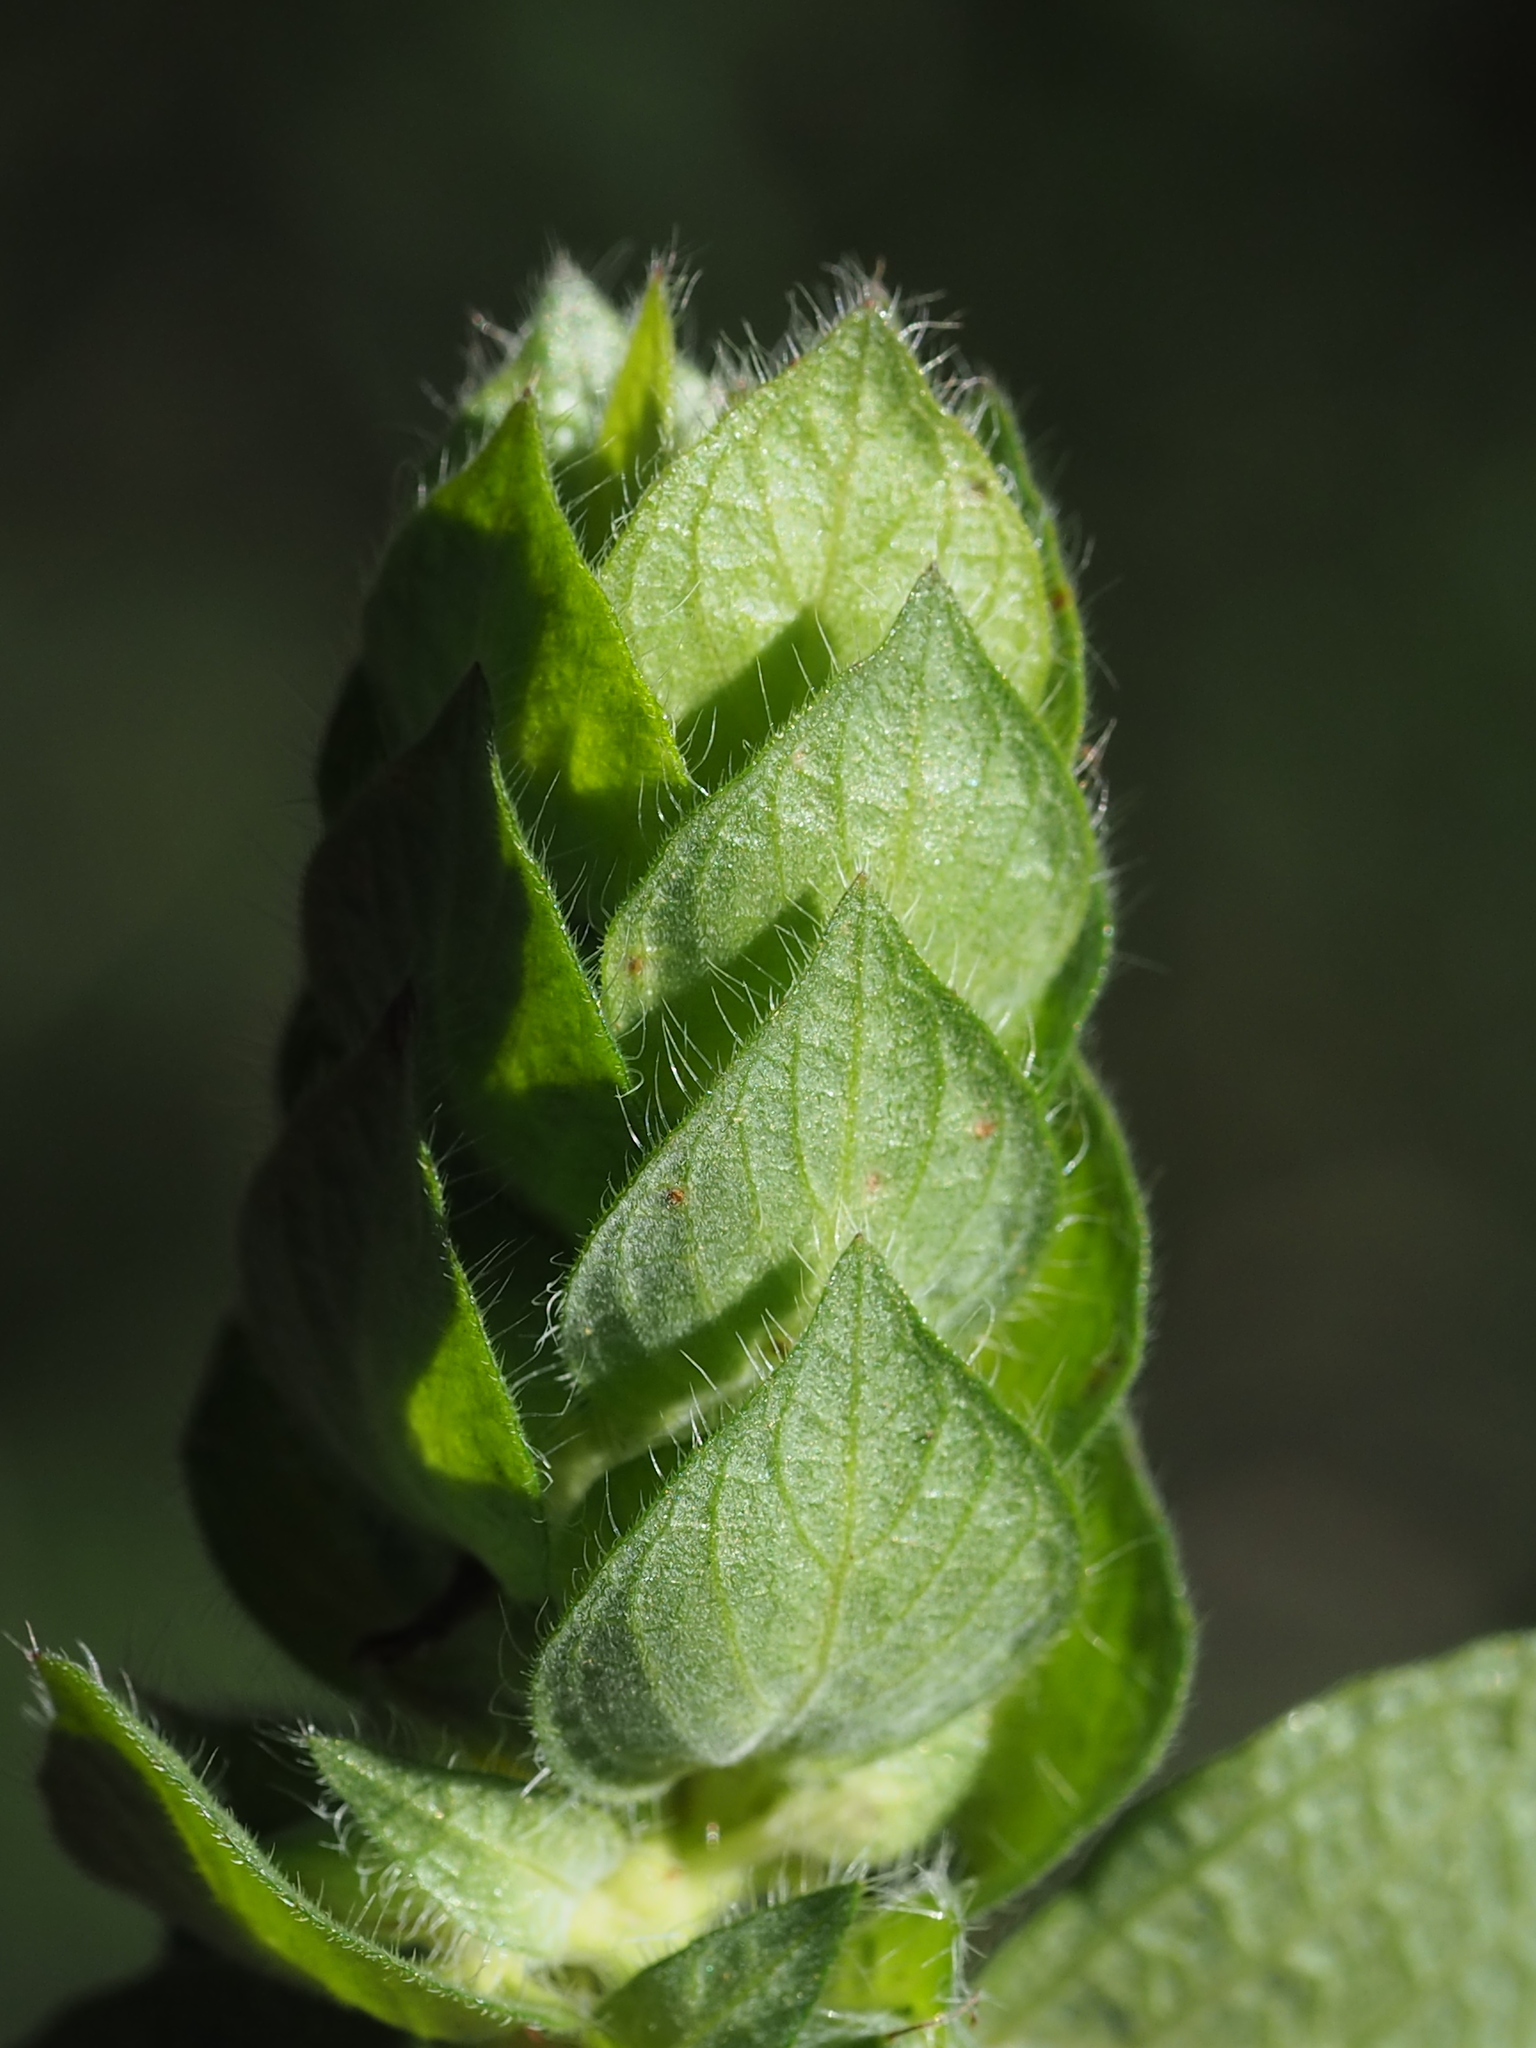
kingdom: Plantae
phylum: Tracheophyta
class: Magnoliopsida
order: Lamiales
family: Acanthaceae
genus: Ruellia
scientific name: Ruellia blechum
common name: Browne's blechum
